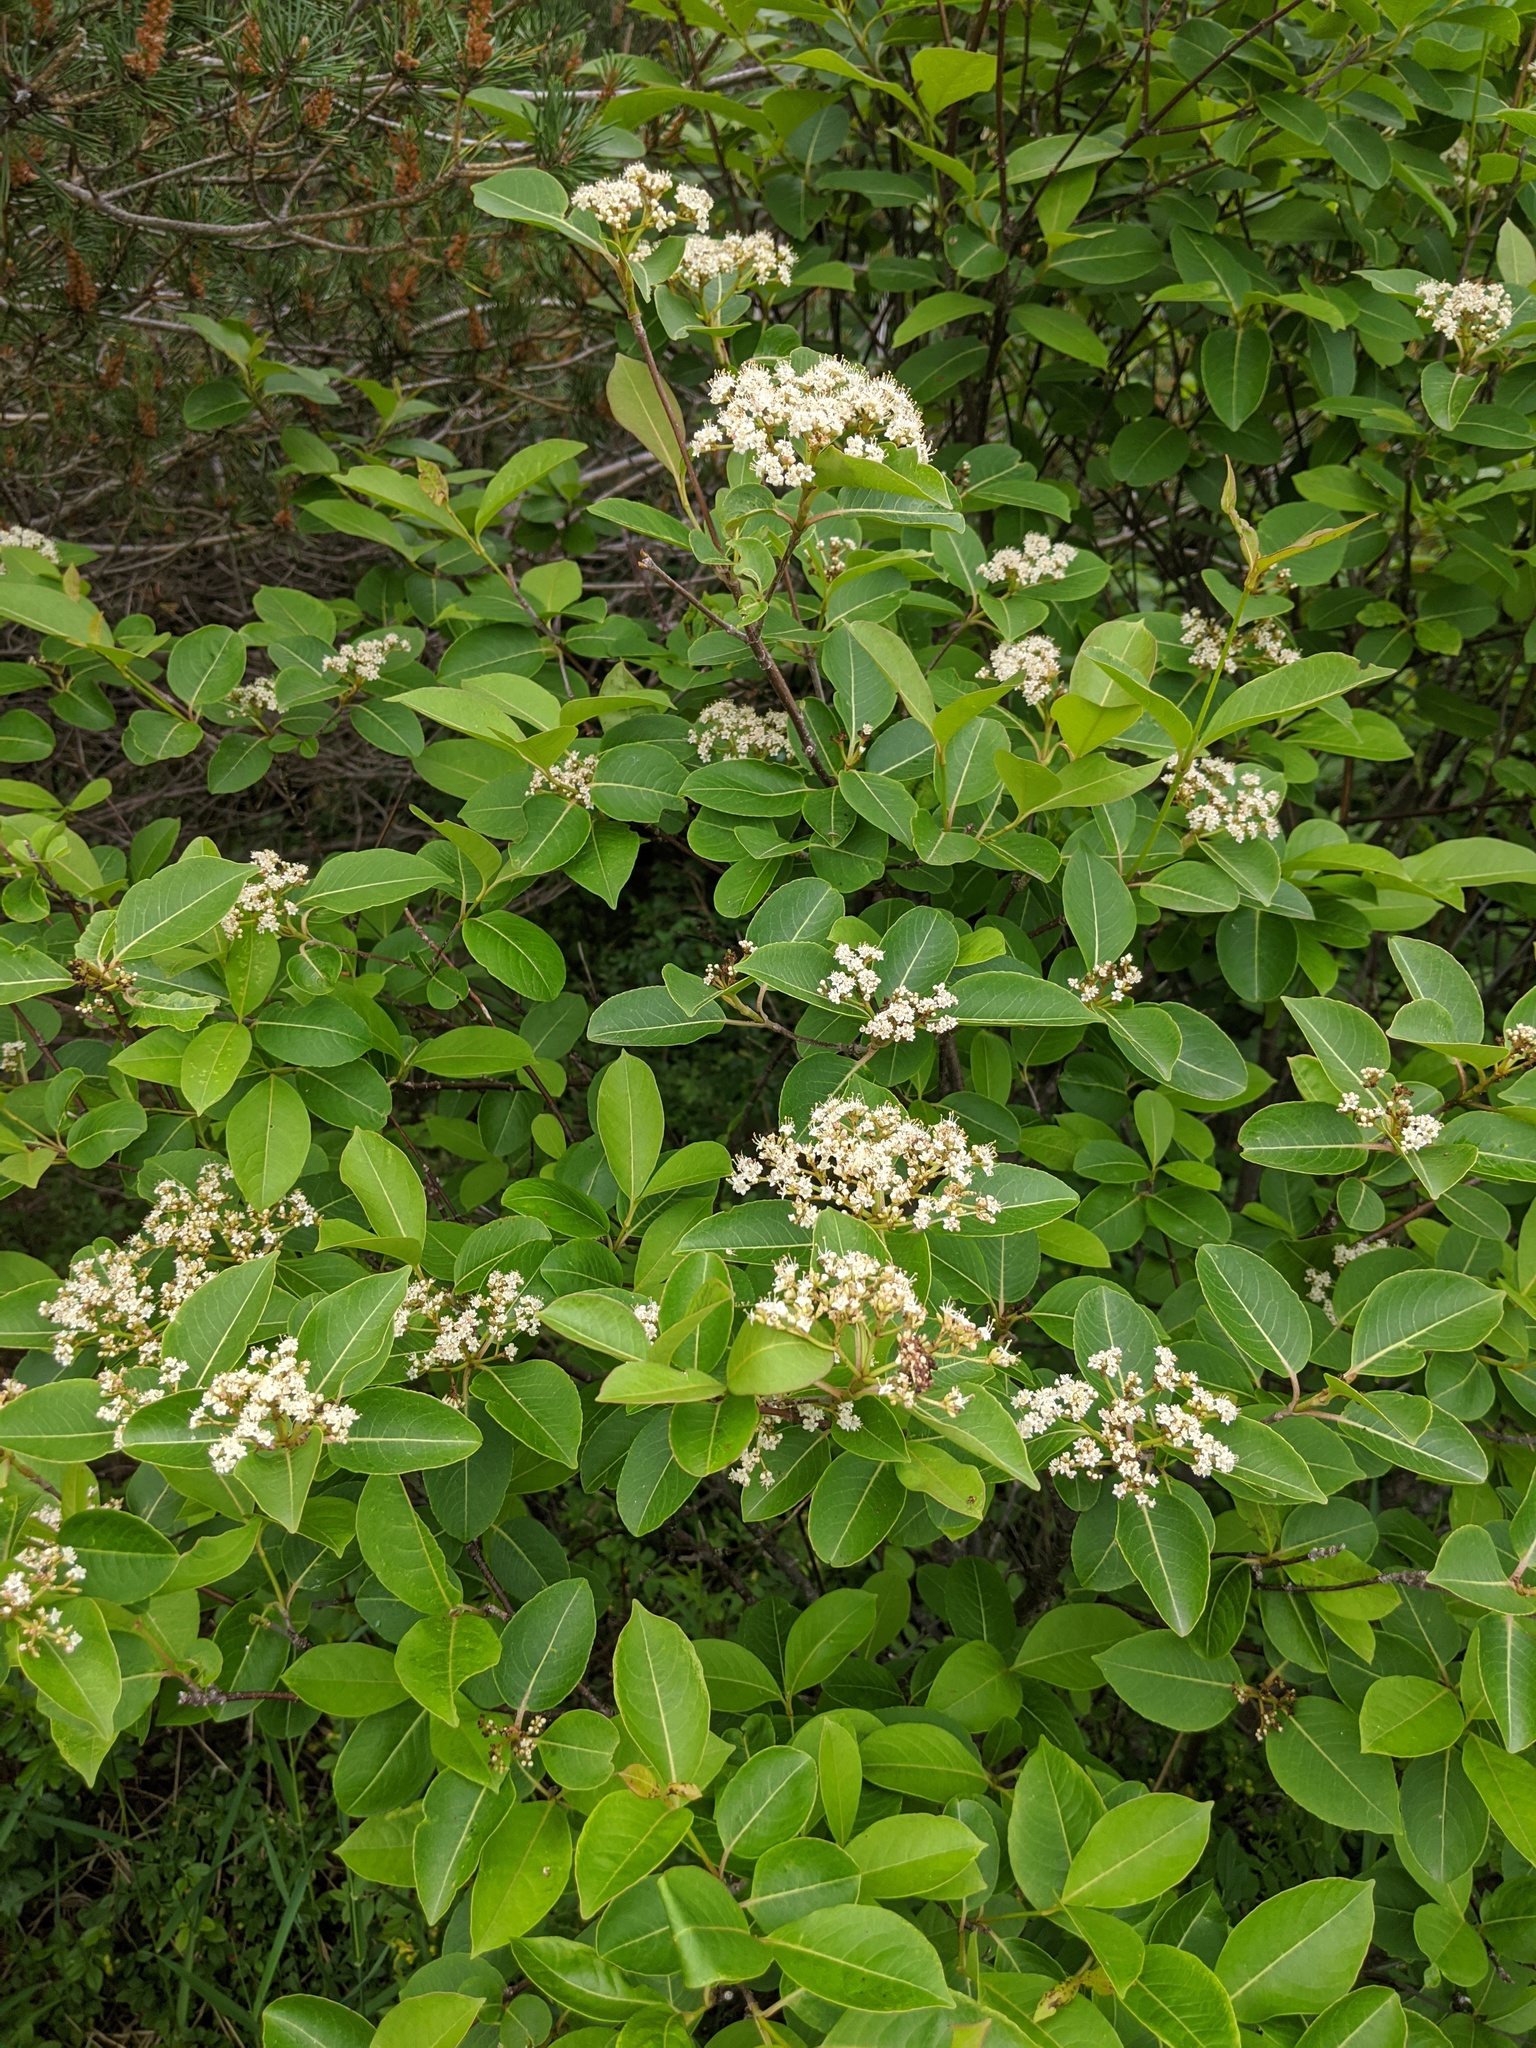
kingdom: Plantae
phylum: Tracheophyta
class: Magnoliopsida
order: Dipsacales
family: Viburnaceae
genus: Viburnum
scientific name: Viburnum cassinoides
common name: Swamp haw
